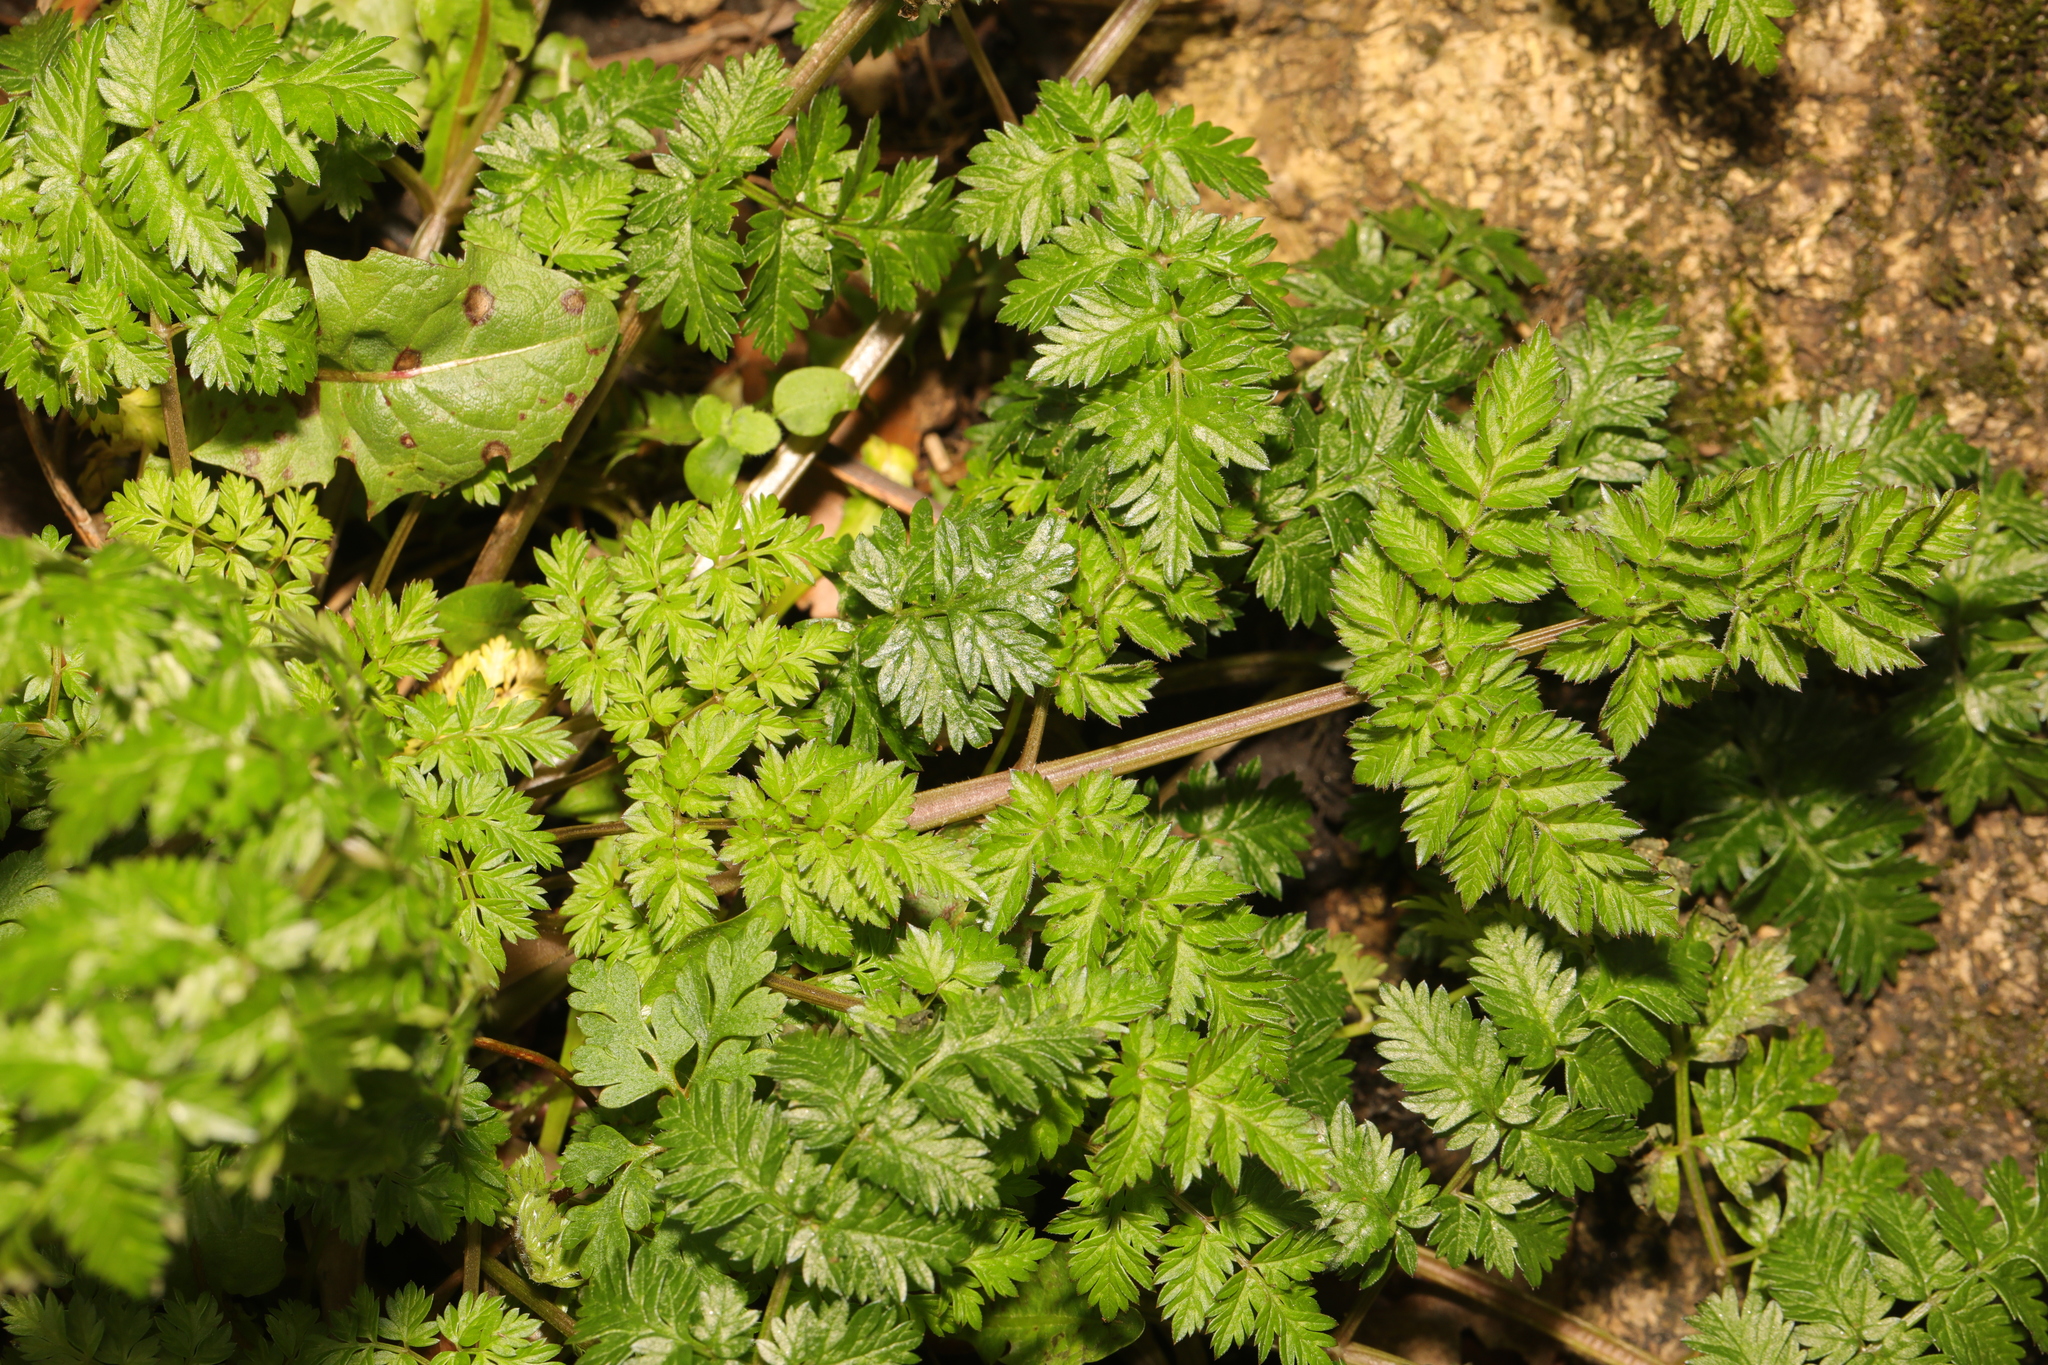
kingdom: Plantae
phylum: Tracheophyta
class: Magnoliopsida
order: Apiales
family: Apiaceae
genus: Anthriscus
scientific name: Anthriscus sylvestris
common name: Cow parsley
